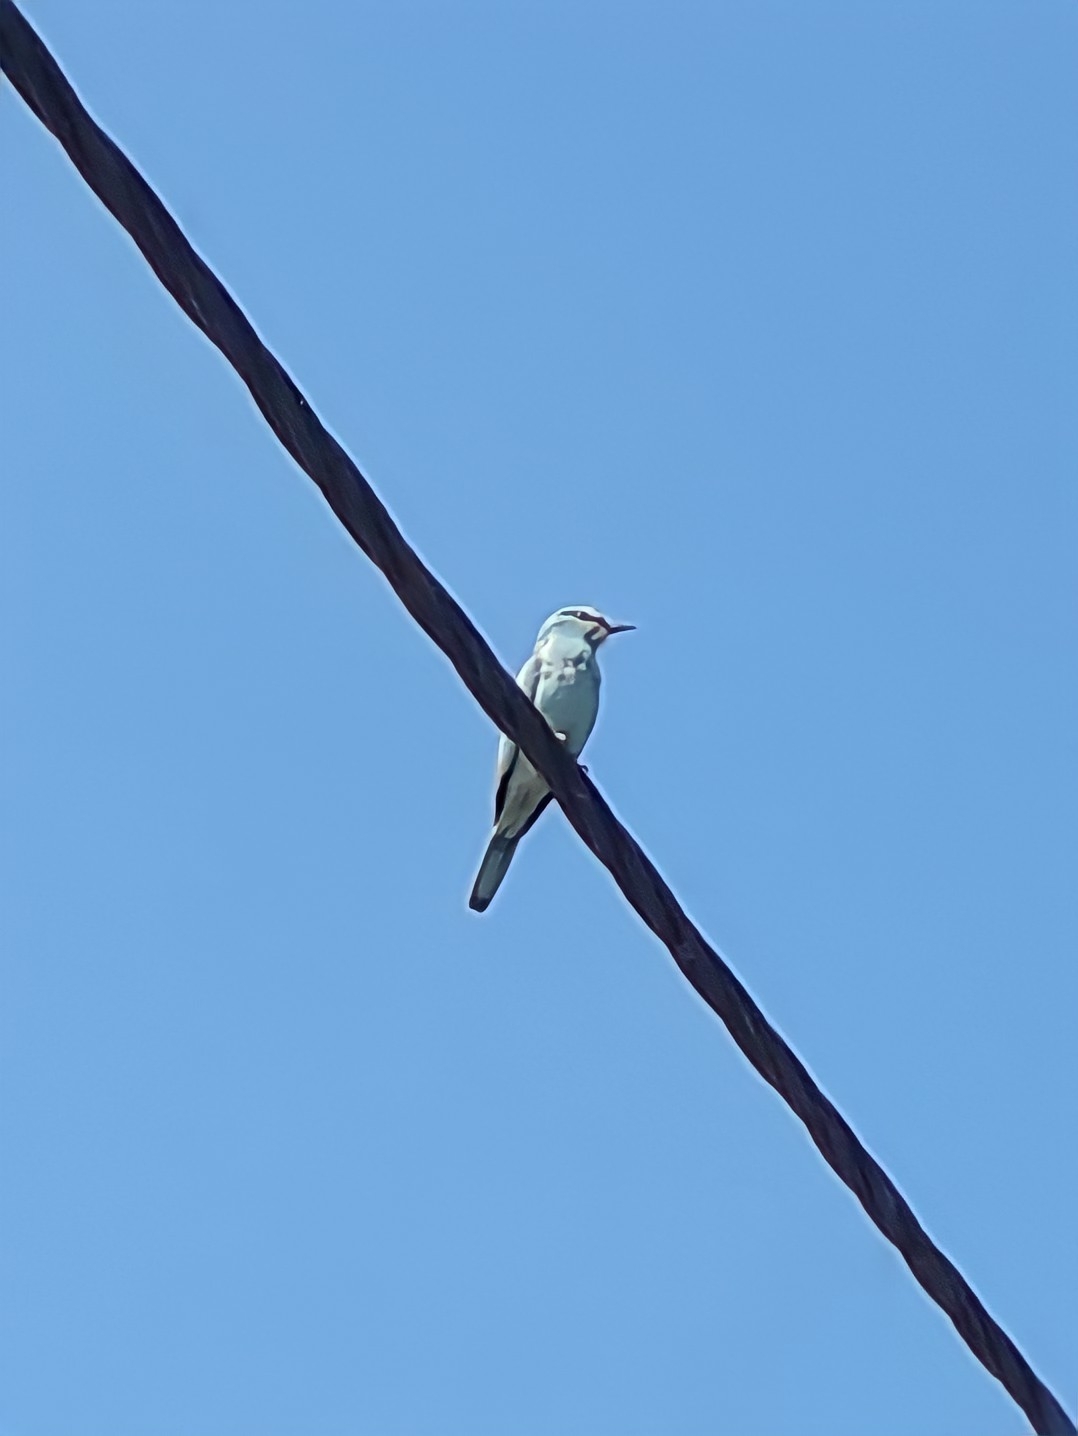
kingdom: Animalia
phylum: Chordata
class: Aves
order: Coraciiformes
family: Coraciidae
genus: Coracias
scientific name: Coracias garrulus
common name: European roller
